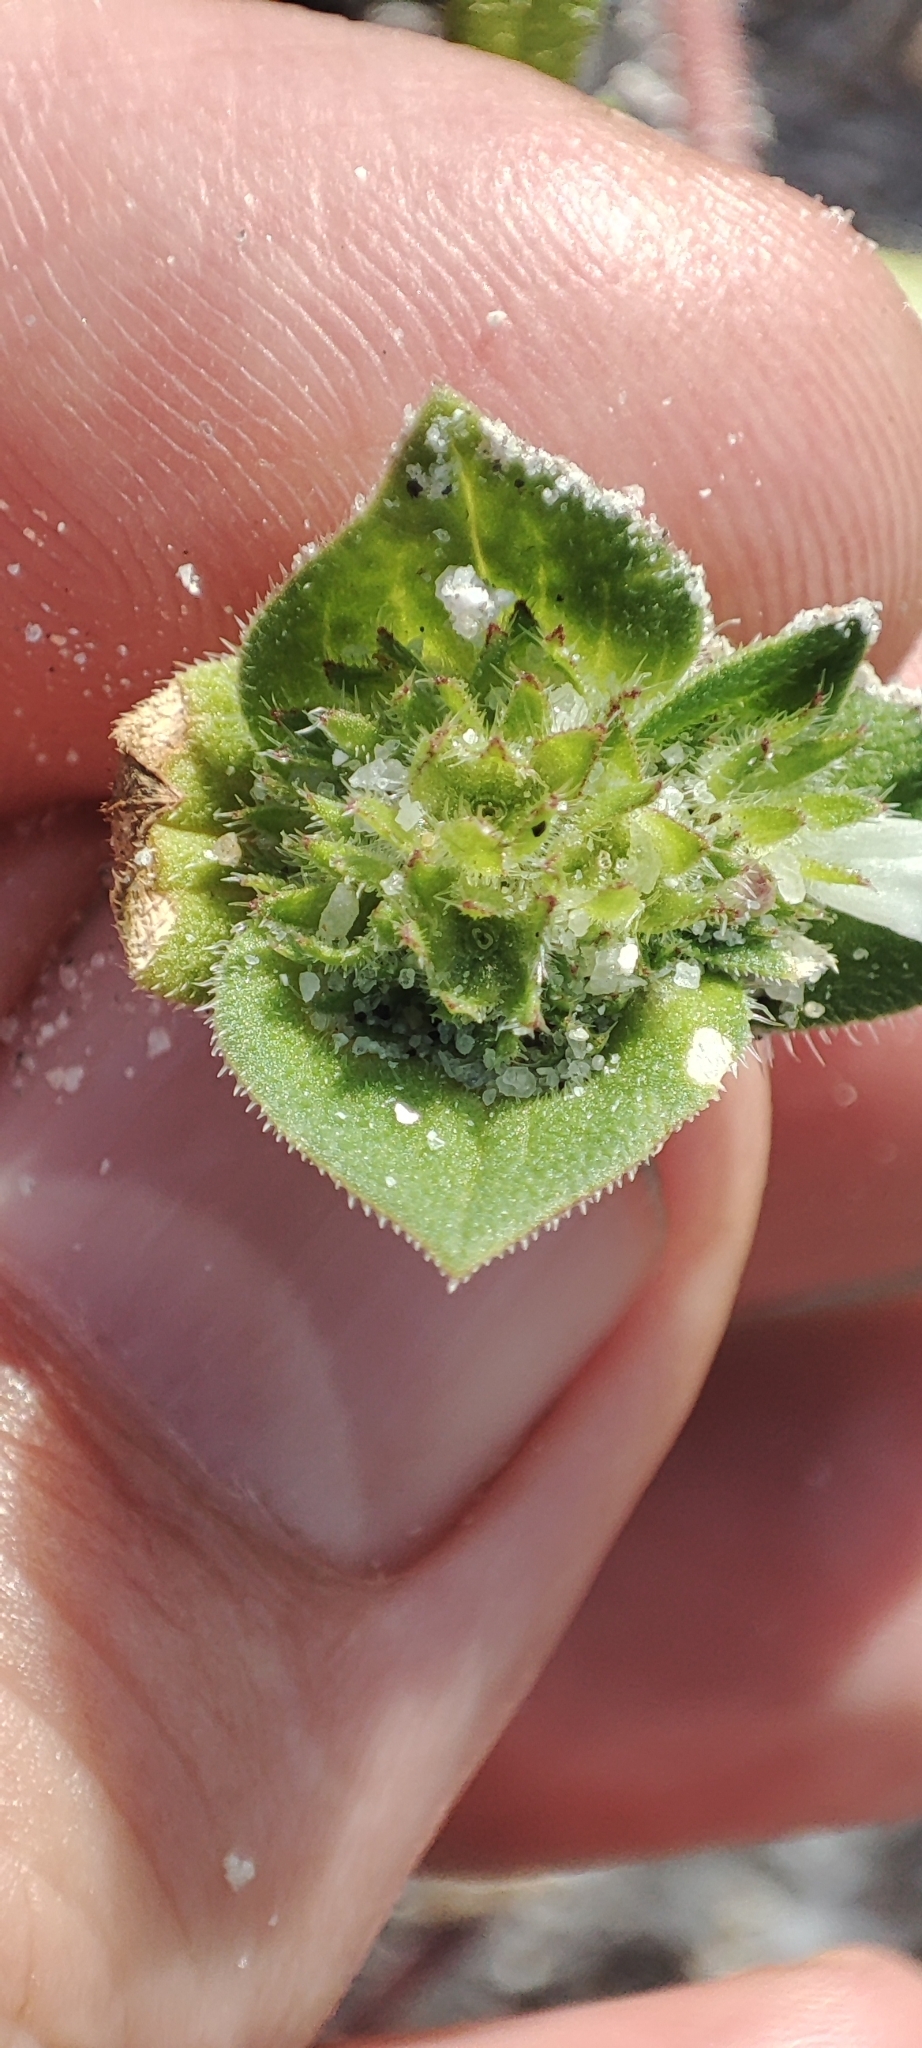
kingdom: Plantae
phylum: Tracheophyta
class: Magnoliopsida
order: Gentianales
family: Rubiaceae
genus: Richardia
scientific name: Richardia brasiliensis
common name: Tropical mexican clover
